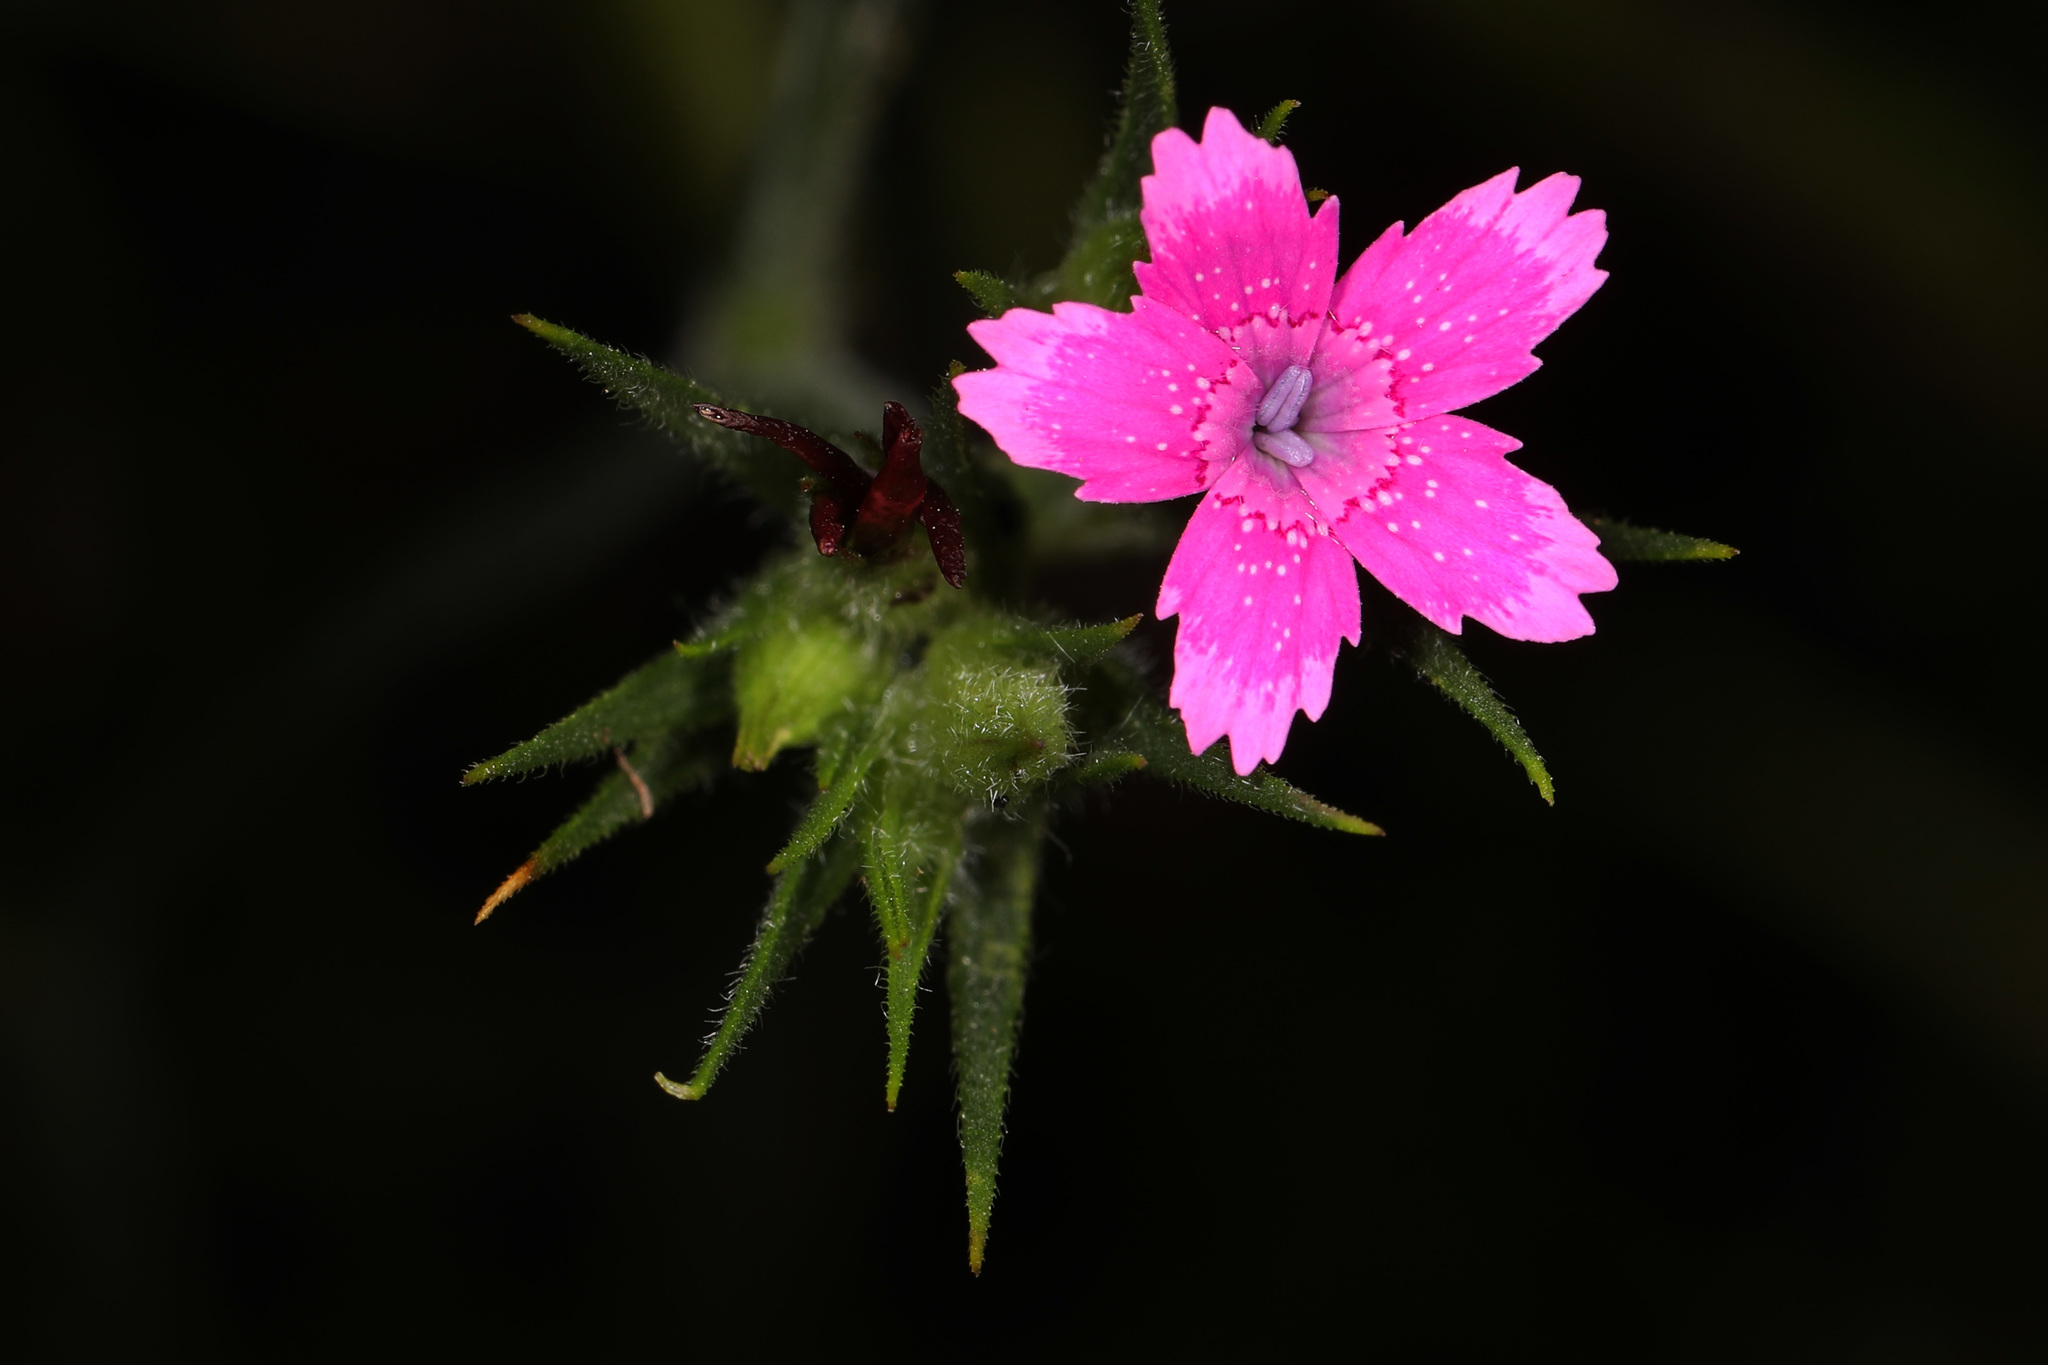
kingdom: Plantae
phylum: Tracheophyta
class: Magnoliopsida
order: Caryophyllales
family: Caryophyllaceae
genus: Dianthus
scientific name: Dianthus armeria
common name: Deptford pink
